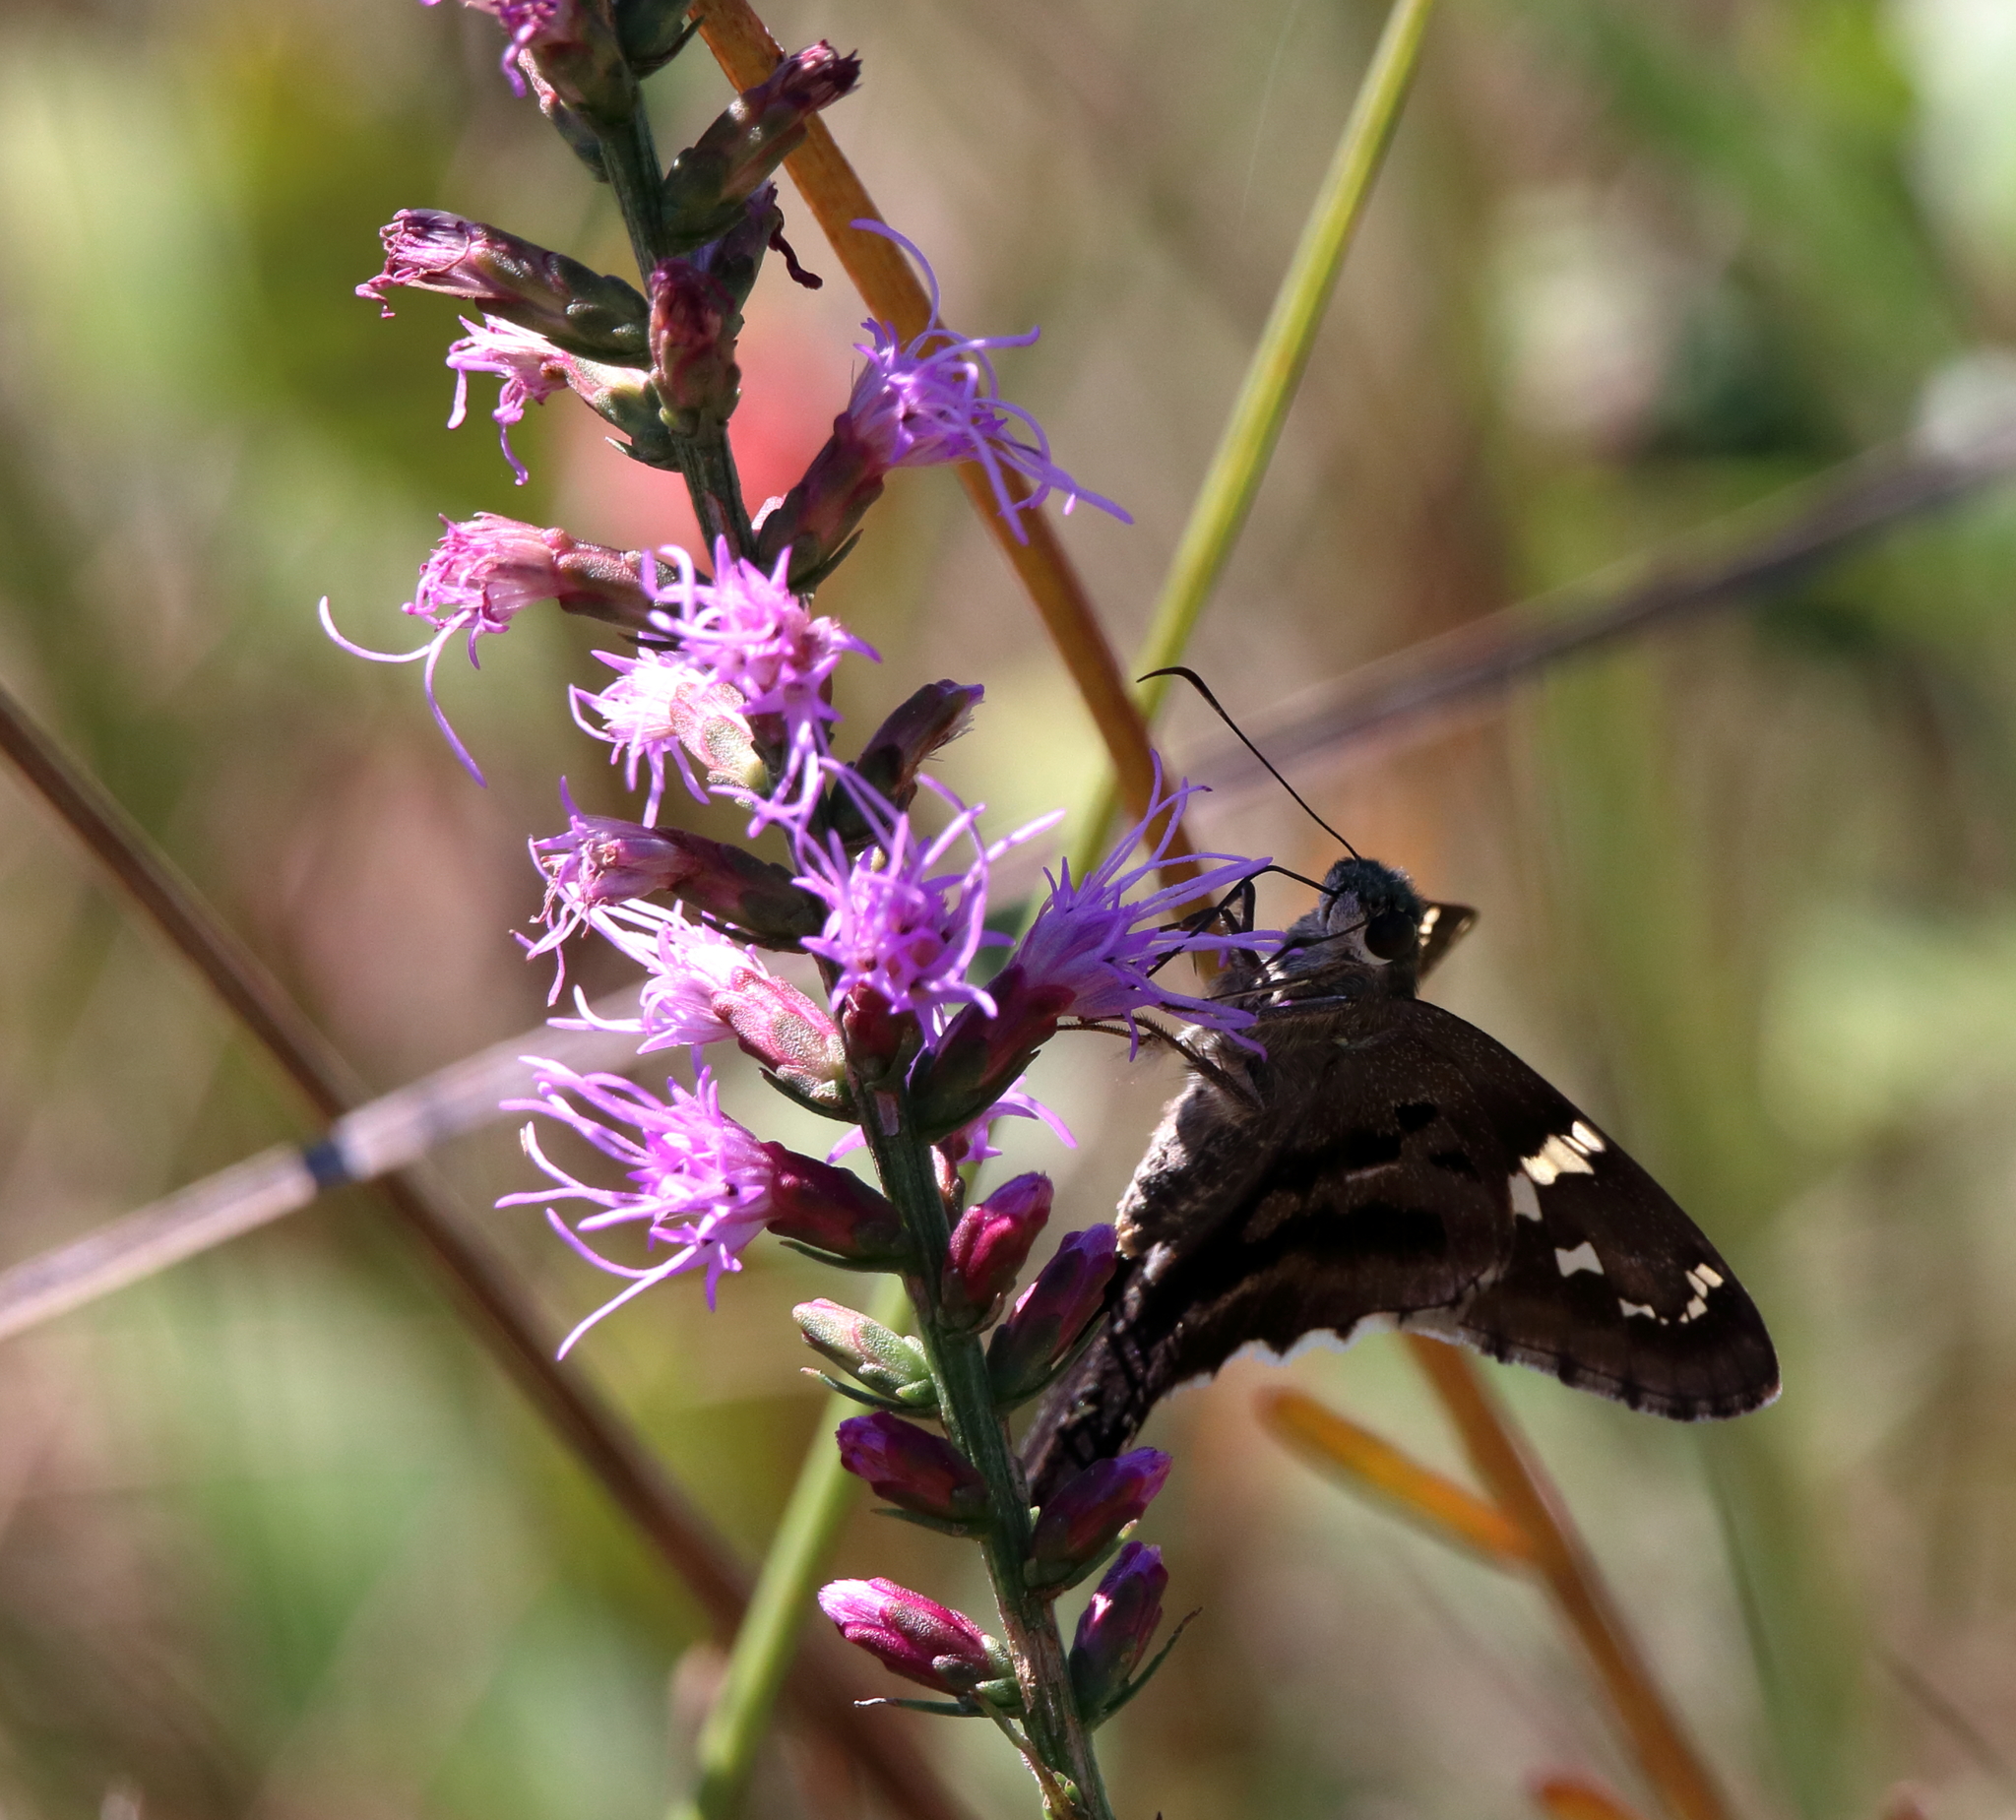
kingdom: Animalia
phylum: Arthropoda
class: Insecta
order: Lepidoptera
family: Hesperiidae
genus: Urbanus
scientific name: Urbanus proteus
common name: Long-tailed skipper
